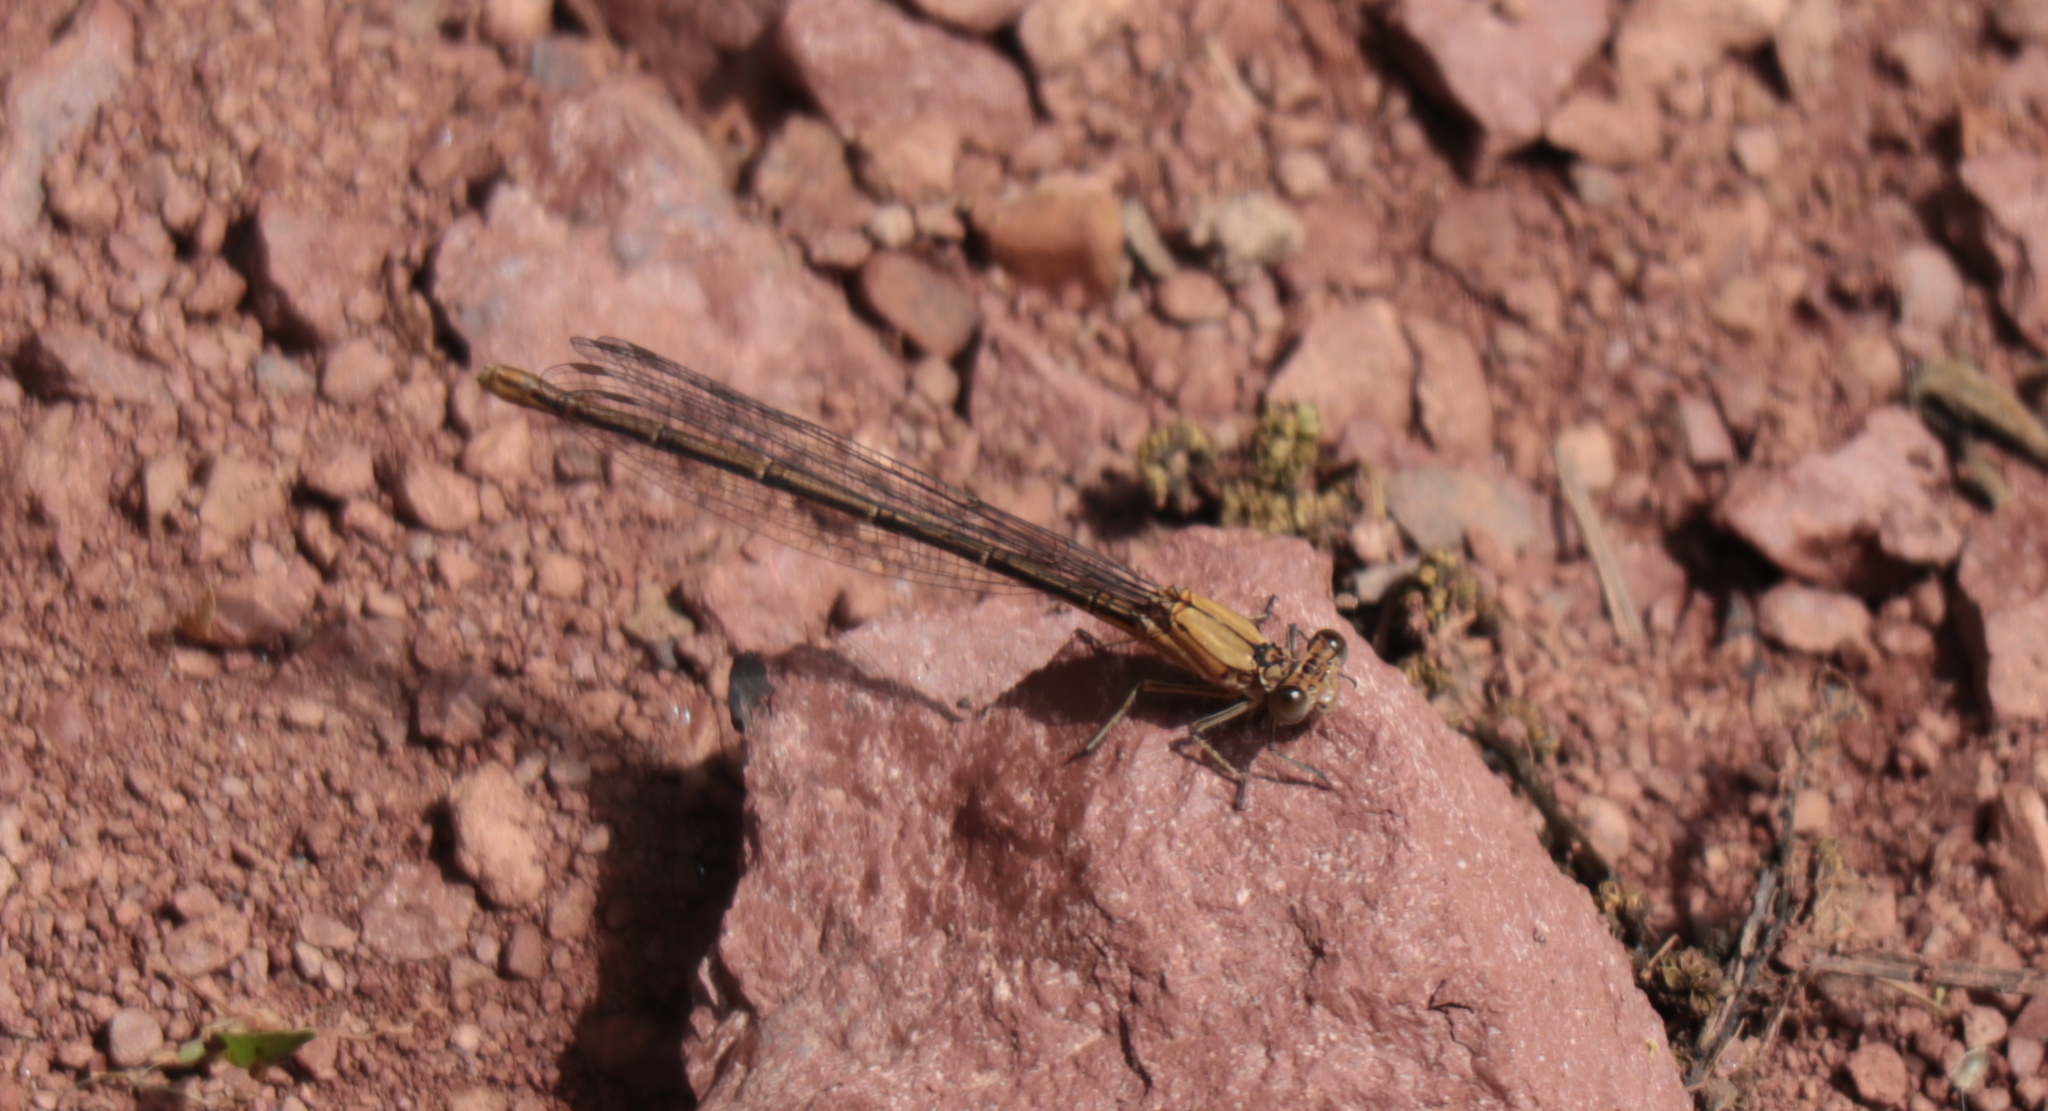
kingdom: Animalia
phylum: Arthropoda
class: Insecta
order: Odonata
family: Coenagrionidae
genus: Argia
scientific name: Argia moesta
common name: Powdered dancer
